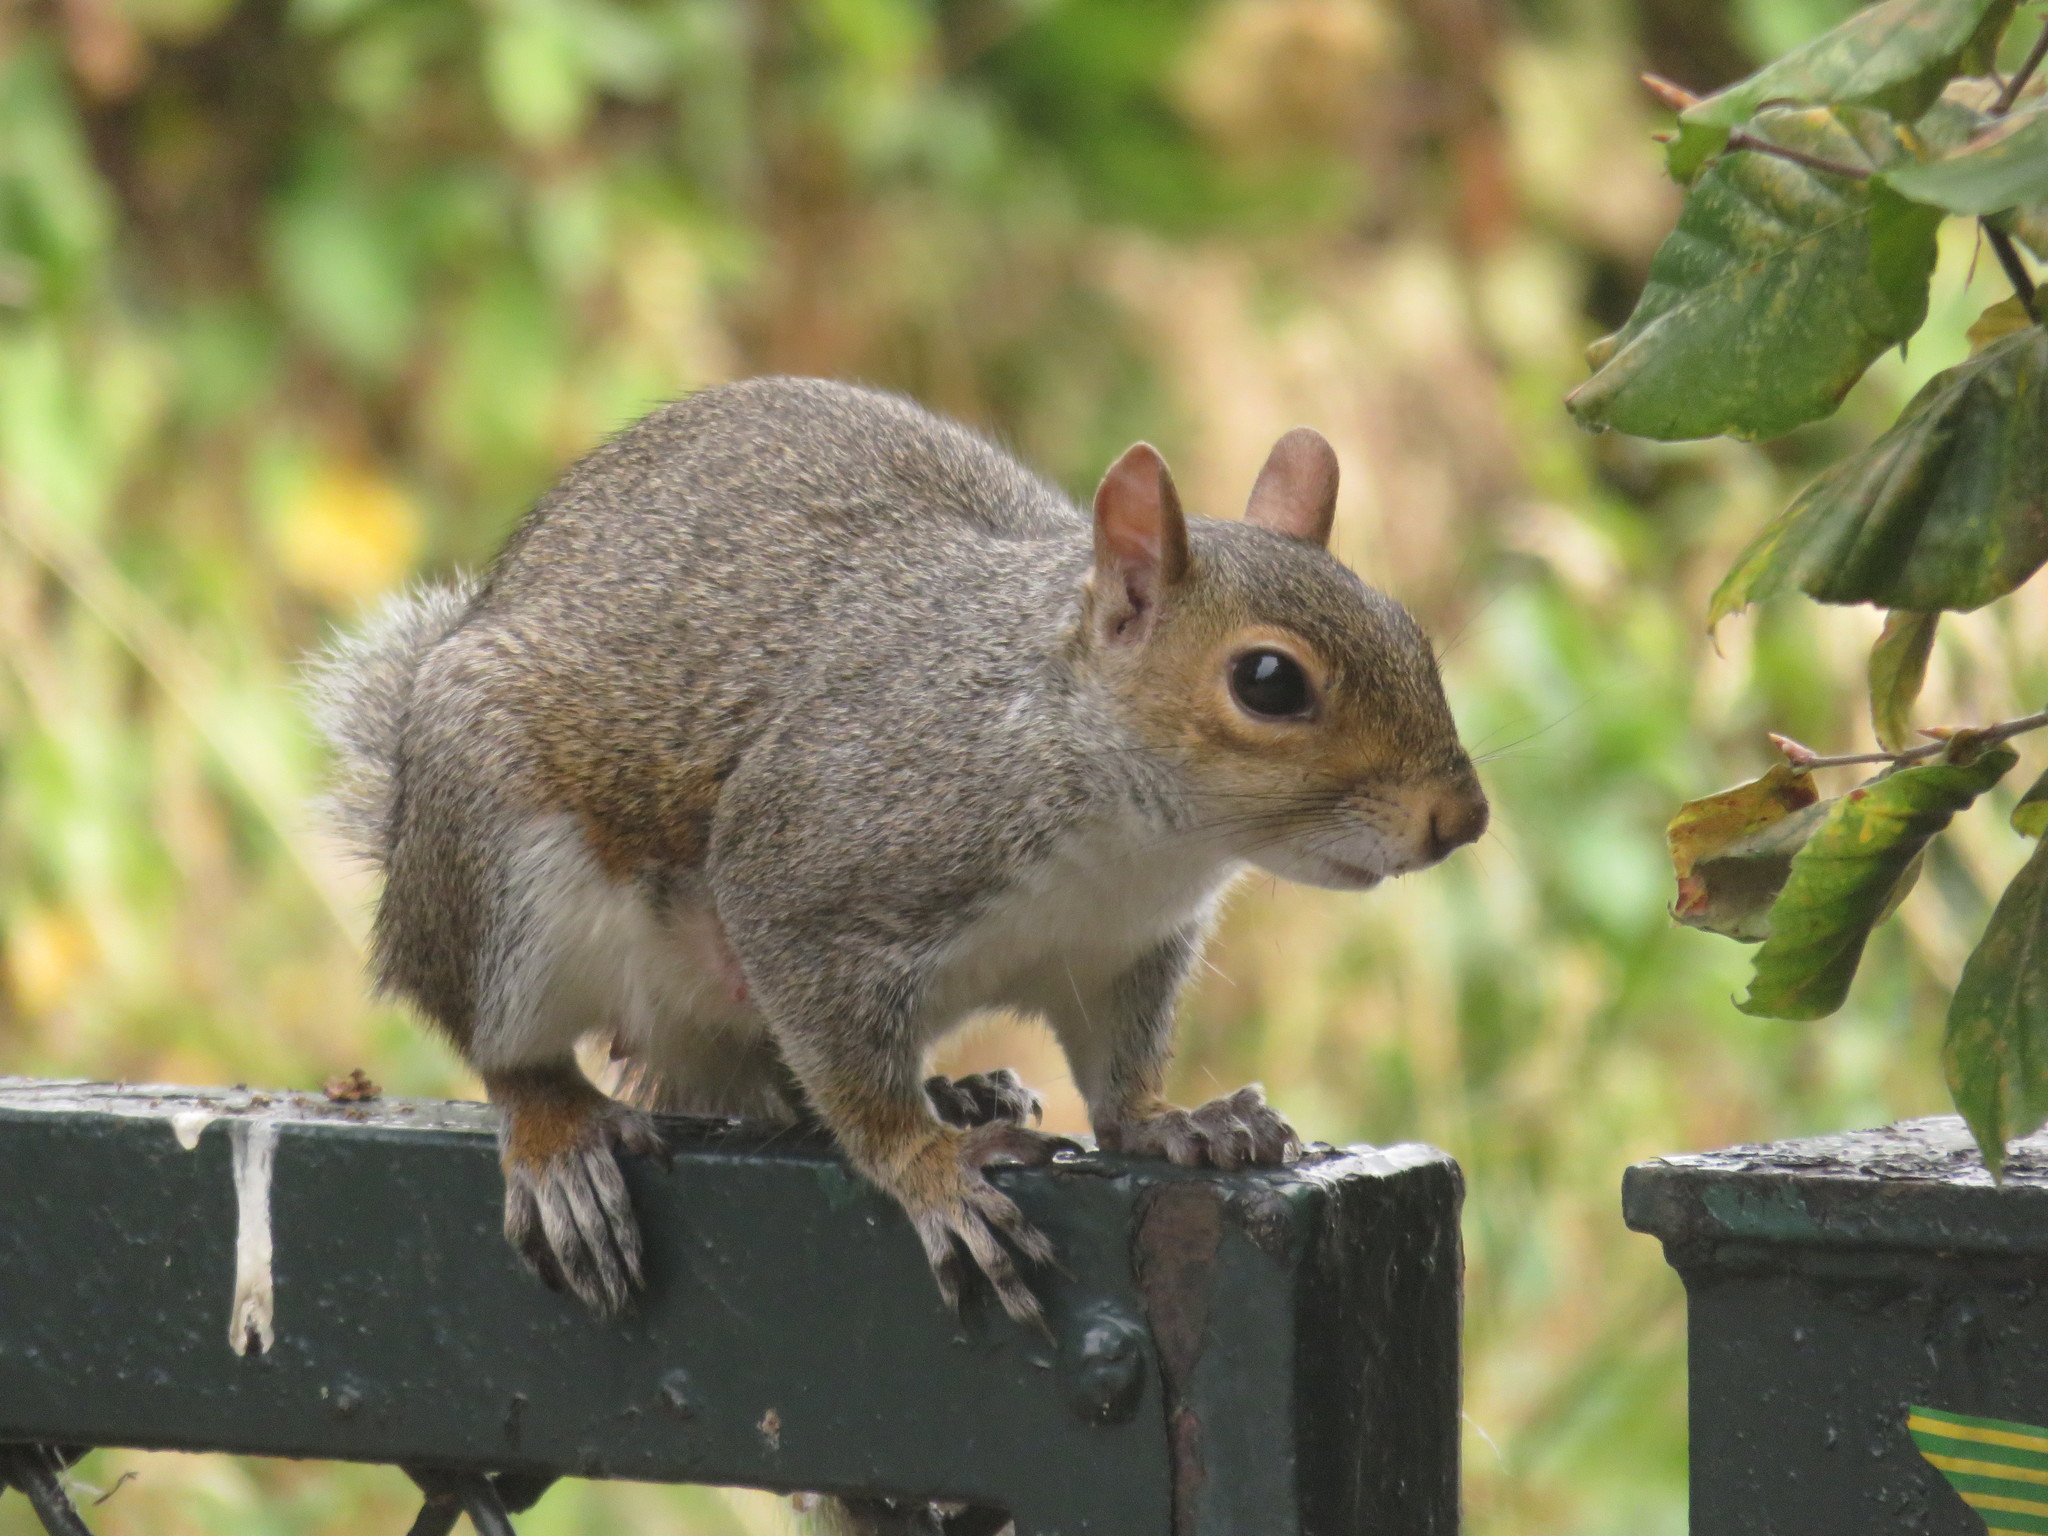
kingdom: Animalia
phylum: Chordata
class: Mammalia
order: Rodentia
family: Sciuridae
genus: Sciurus
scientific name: Sciurus carolinensis
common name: Eastern gray squirrel
